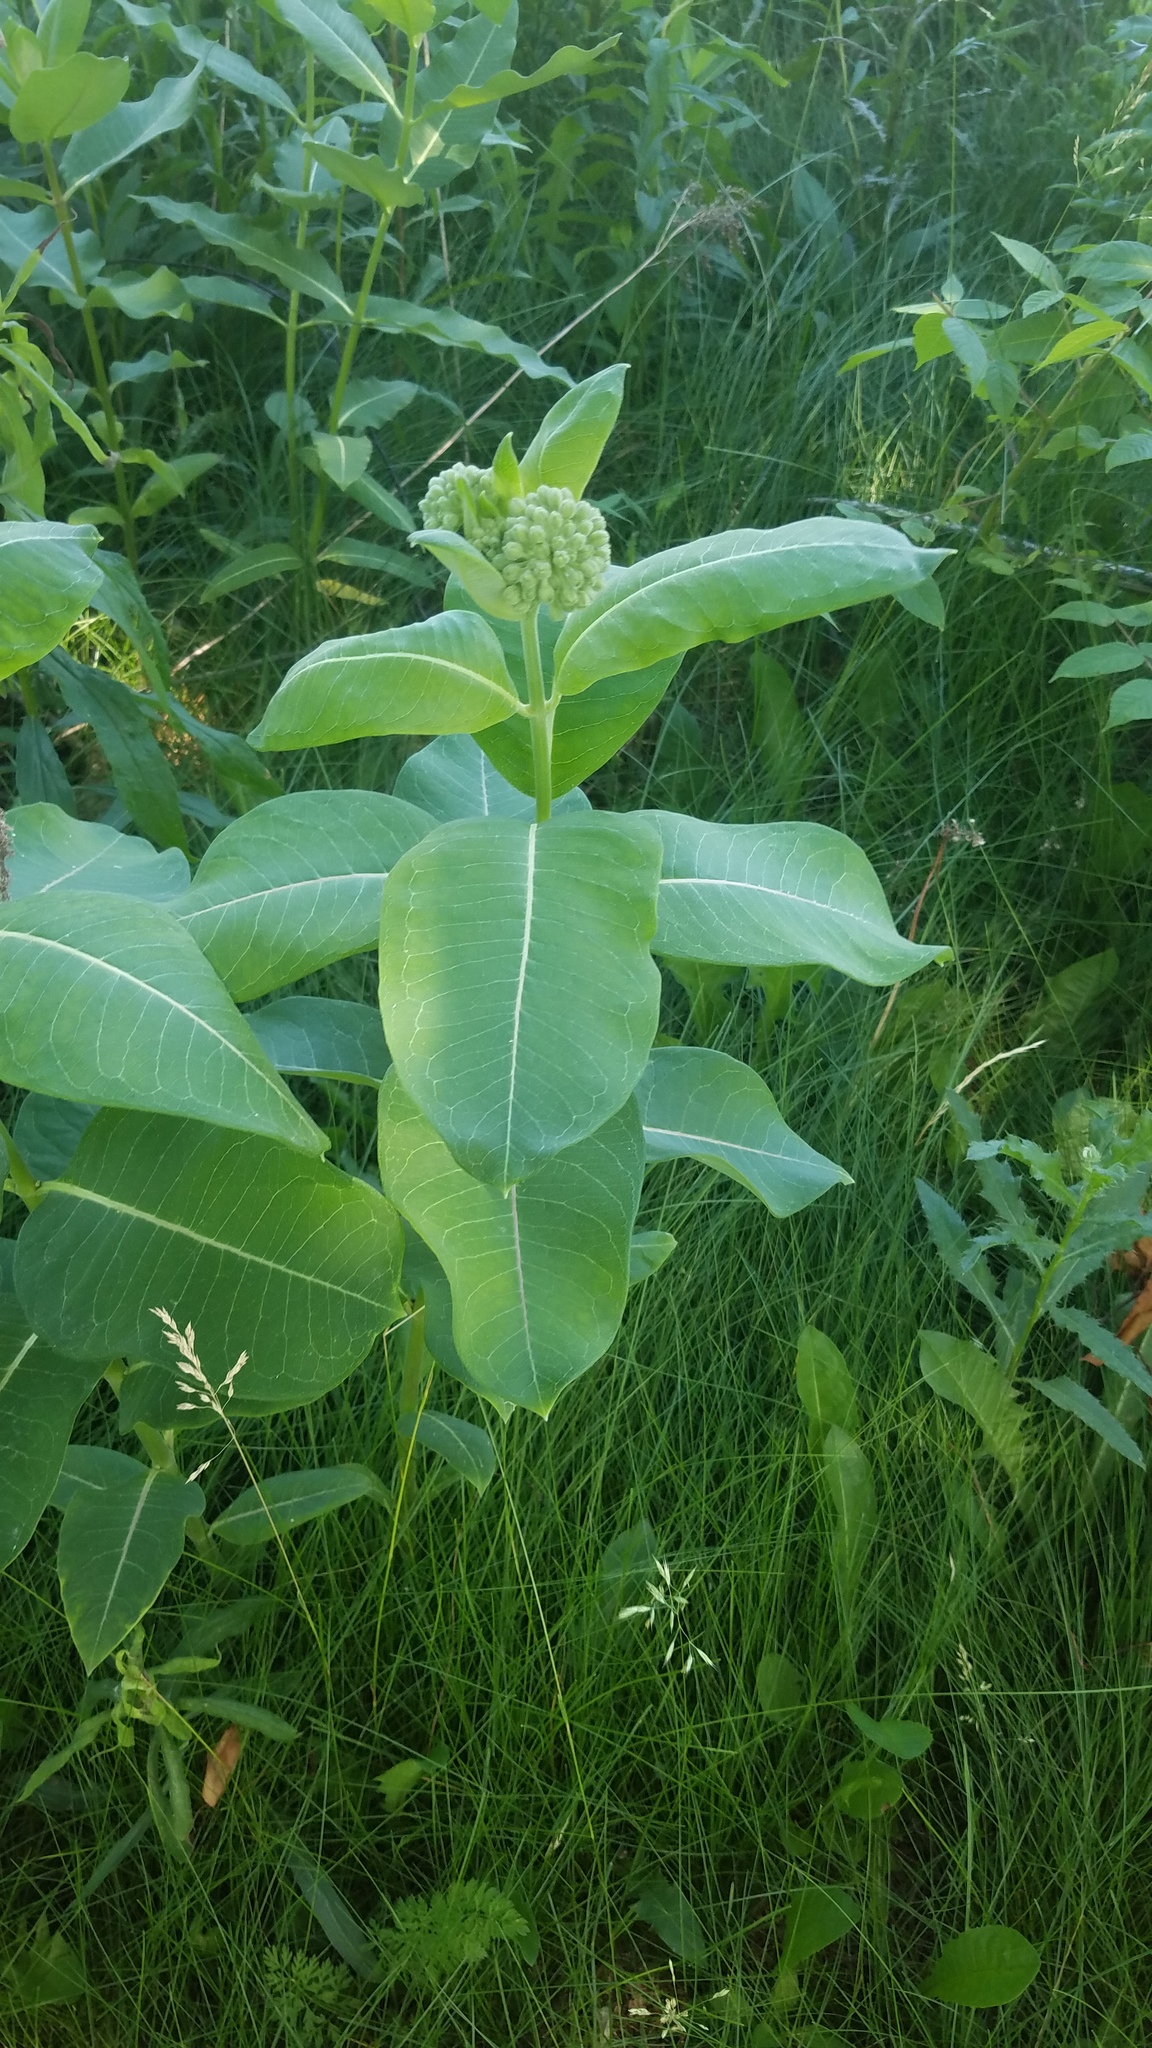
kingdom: Plantae
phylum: Tracheophyta
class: Magnoliopsida
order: Gentianales
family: Apocynaceae
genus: Asclepias
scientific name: Asclepias syriaca
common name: Common milkweed
